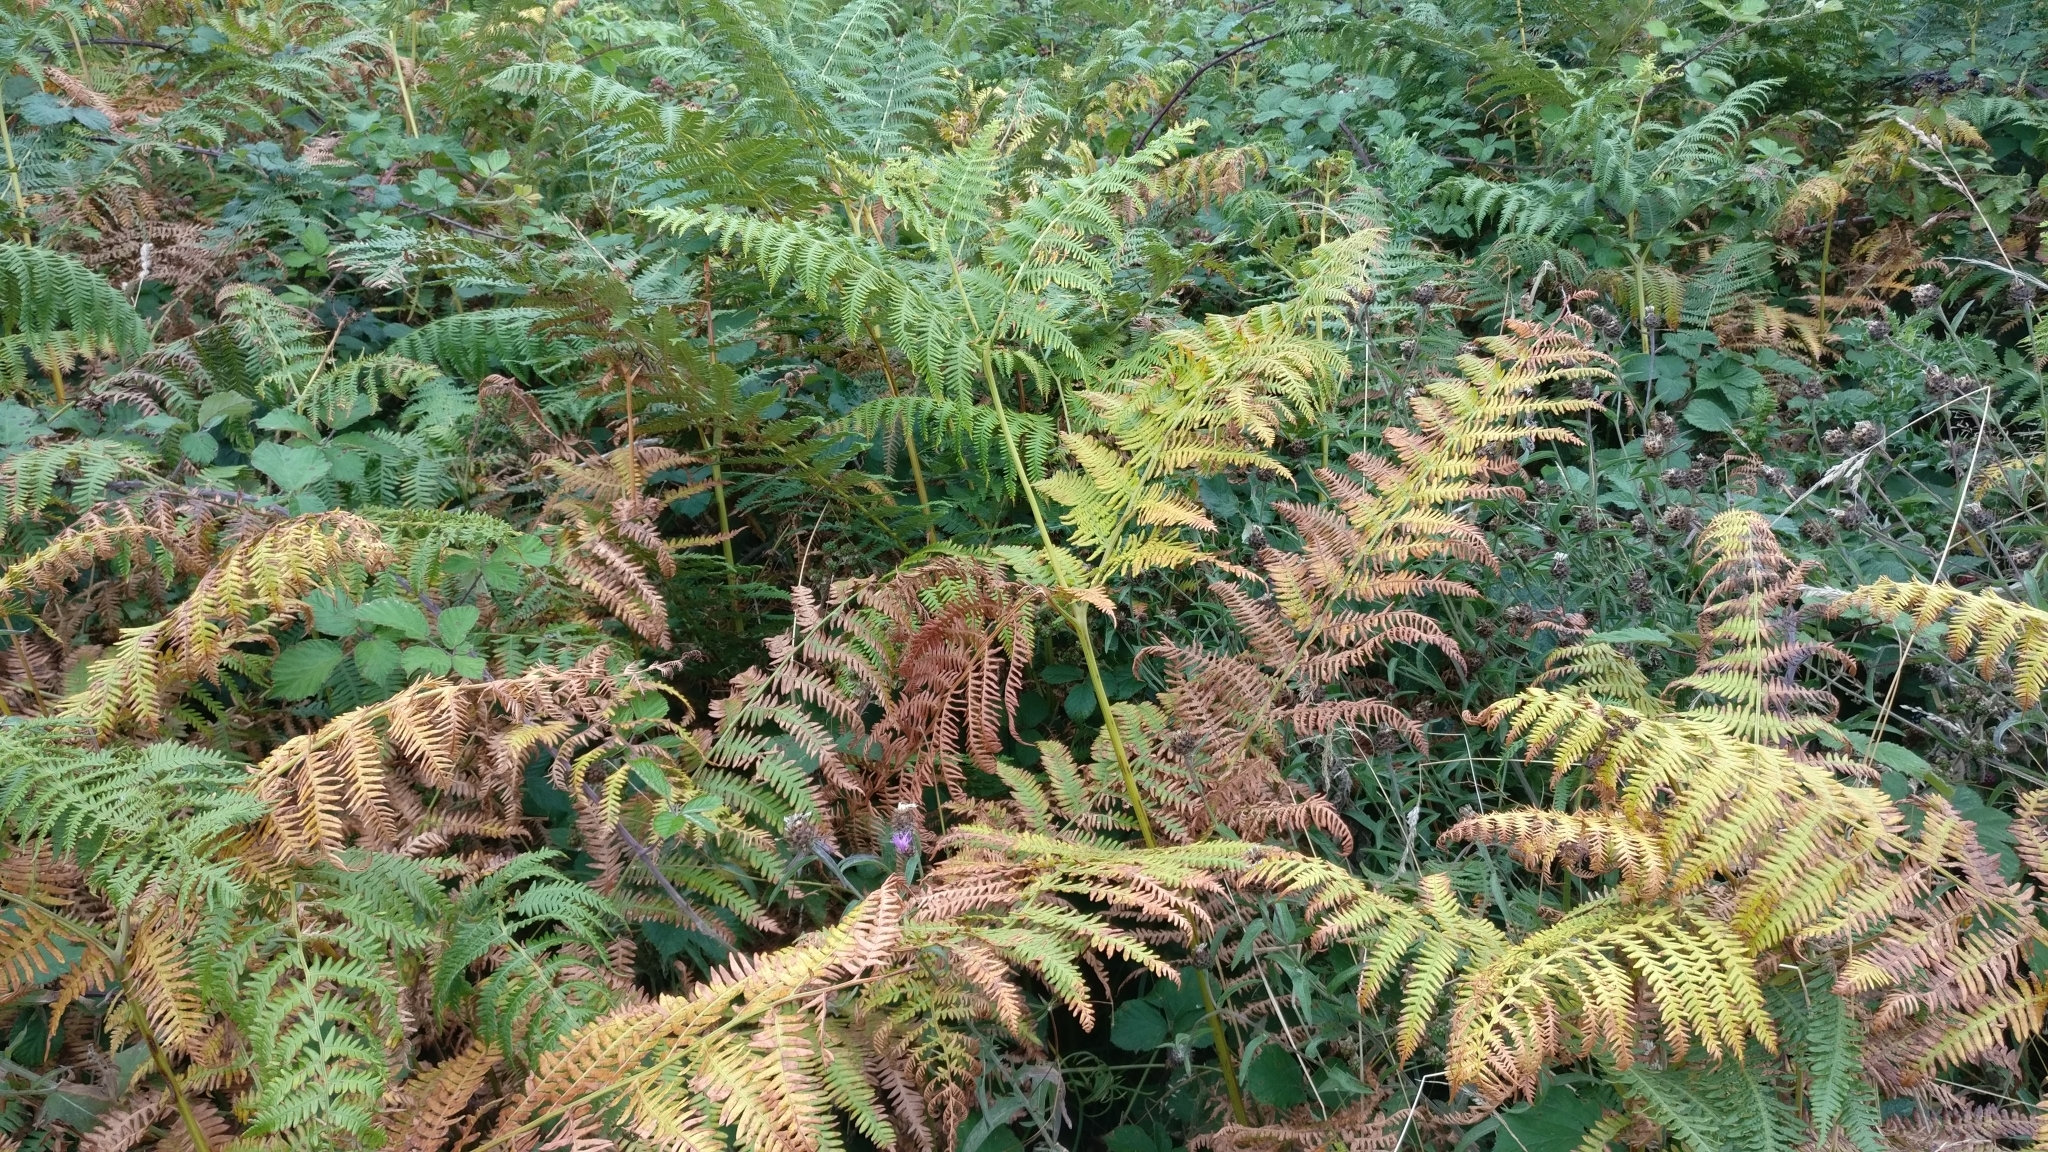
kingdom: Plantae
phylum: Tracheophyta
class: Polypodiopsida
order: Polypodiales
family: Dennstaedtiaceae
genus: Pteridium
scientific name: Pteridium aquilinum
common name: Bracken
